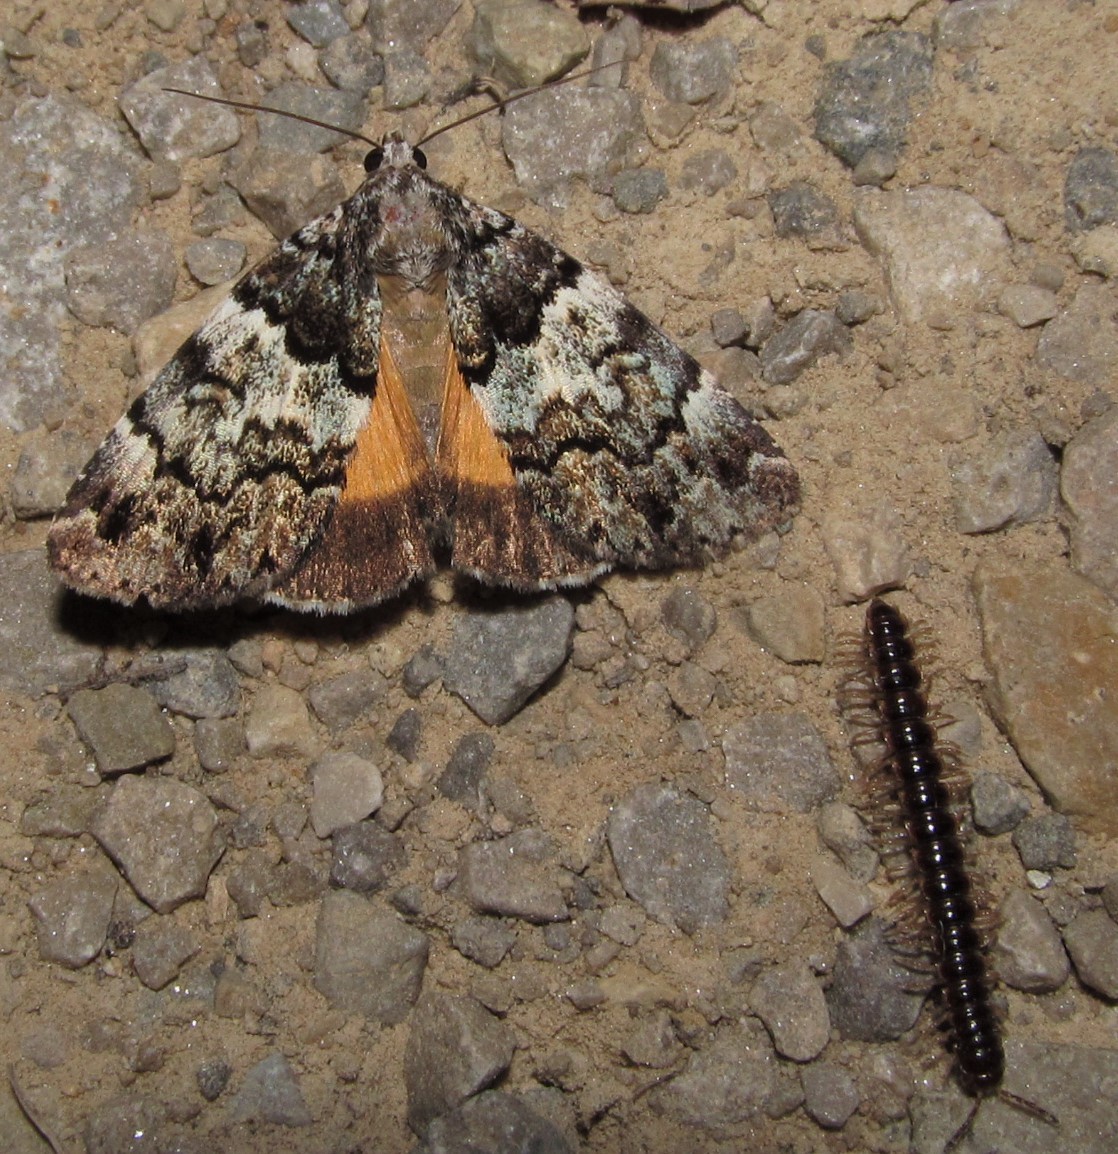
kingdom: Animalia
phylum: Arthropoda
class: Insecta
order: Lepidoptera
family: Erebidae
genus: Allotria
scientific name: Allotria elonympha
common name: False underwing
